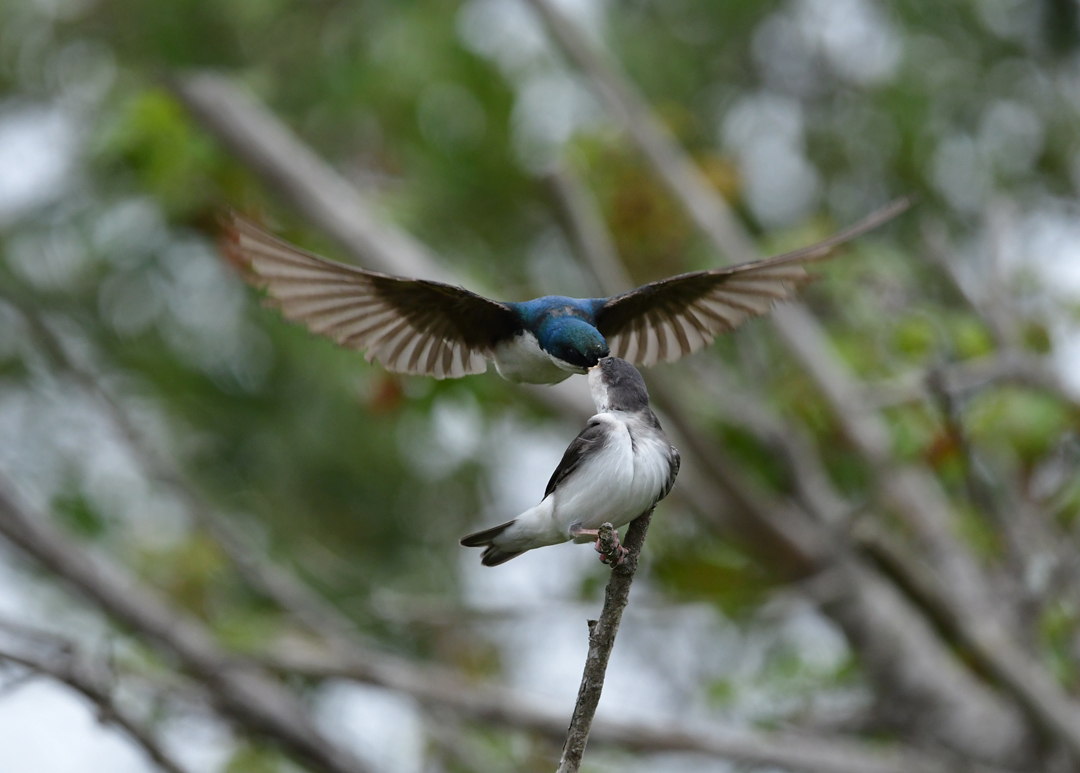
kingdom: Animalia
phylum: Chordata
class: Aves
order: Passeriformes
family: Hirundinidae
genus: Tachycineta
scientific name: Tachycineta bicolor
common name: Tree swallow
